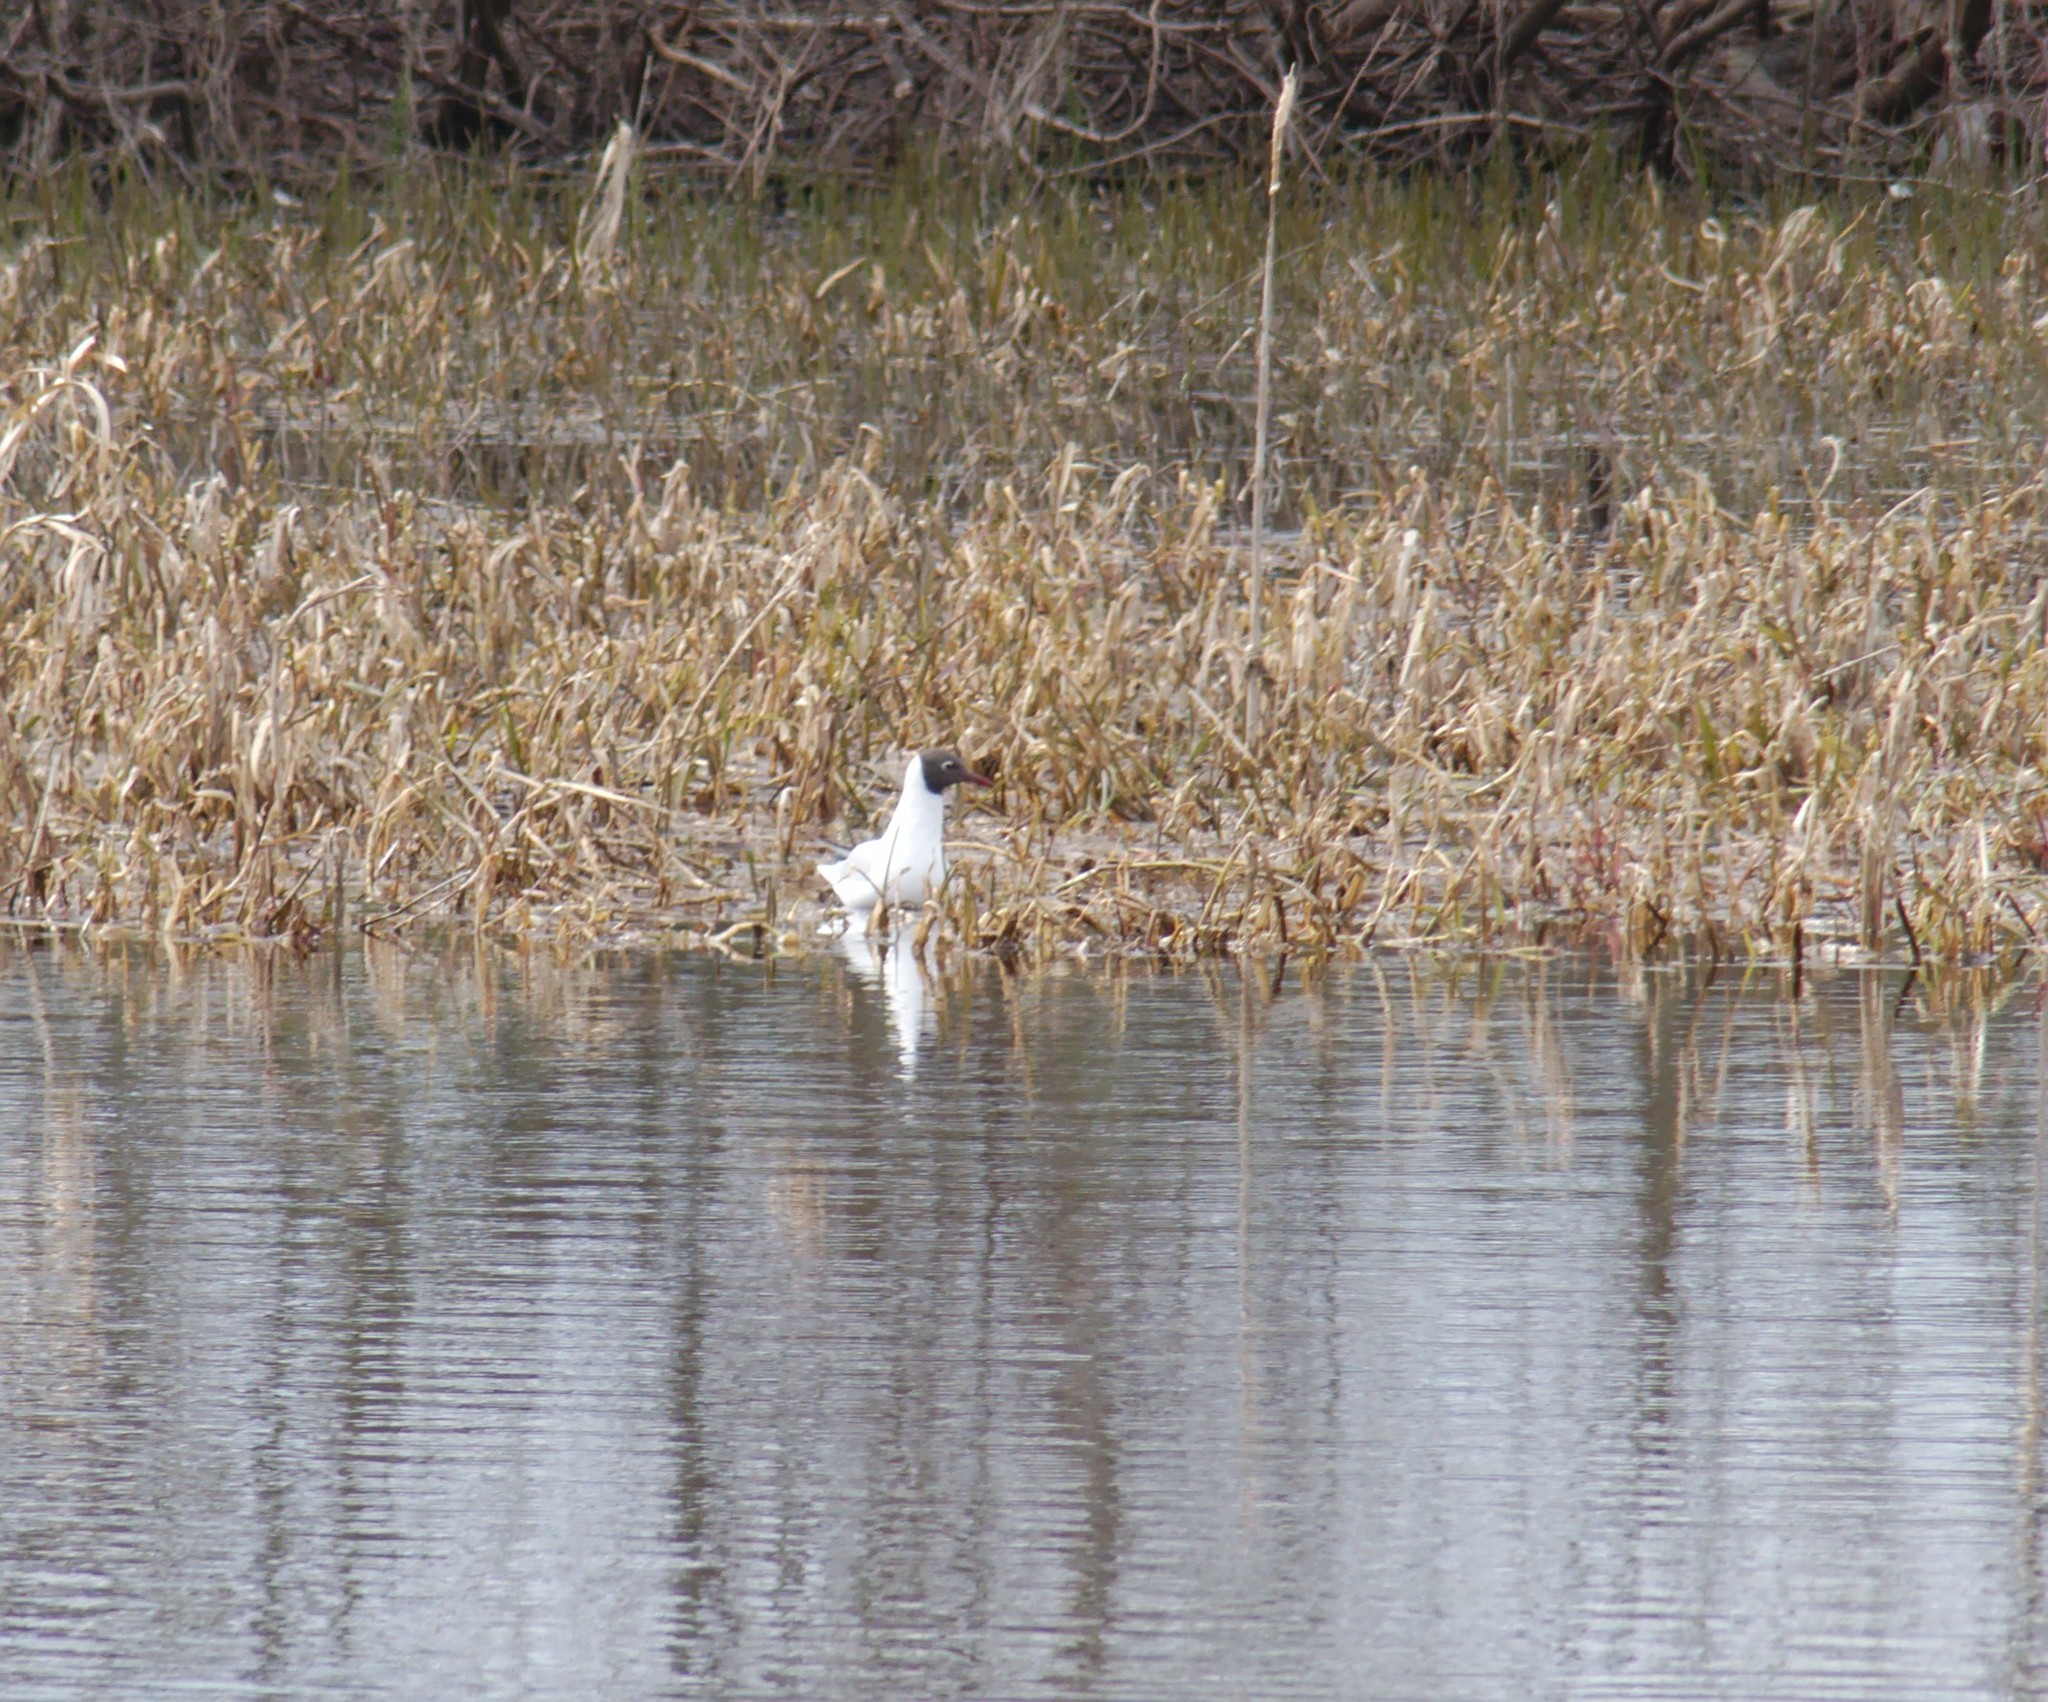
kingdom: Animalia
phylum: Chordata
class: Aves
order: Charadriiformes
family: Laridae
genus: Chroicocephalus
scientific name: Chroicocephalus ridibundus
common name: Black-headed gull
